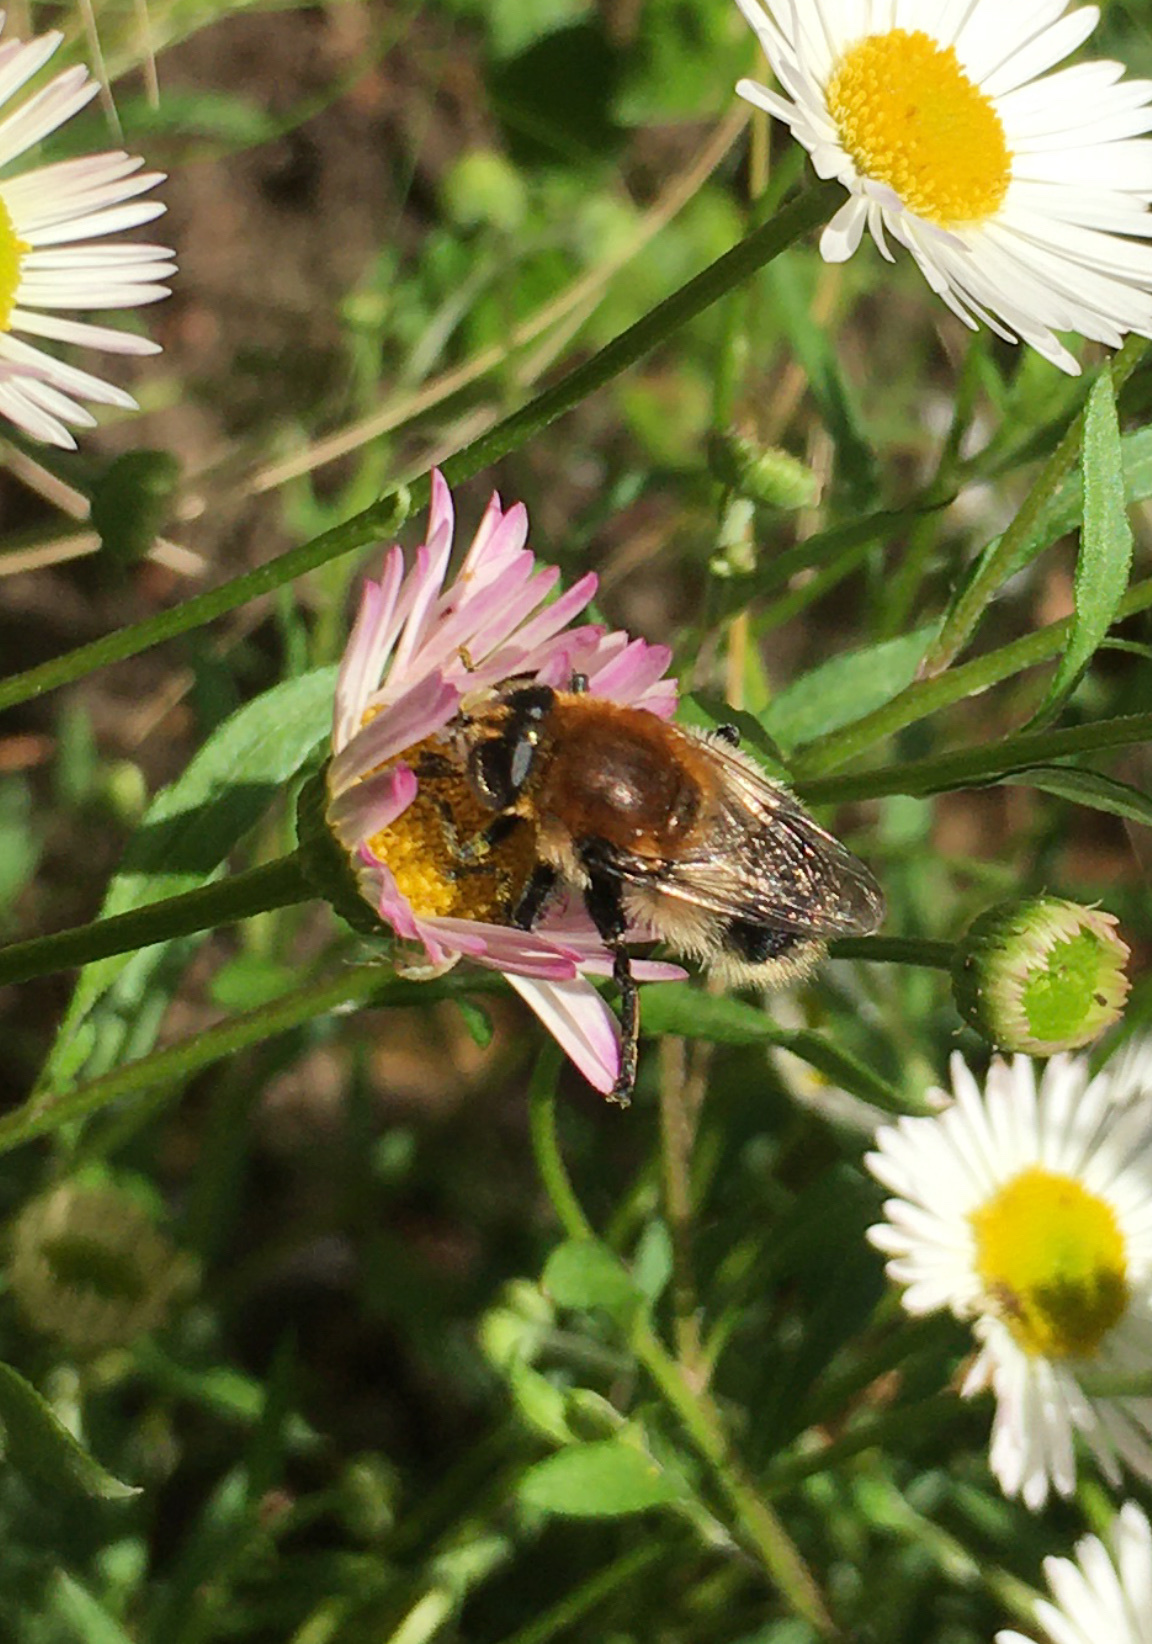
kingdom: Animalia
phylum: Arthropoda
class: Insecta
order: Diptera
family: Syrphidae
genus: Merodon
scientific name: Merodon equestris
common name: Greater bulb-fly
